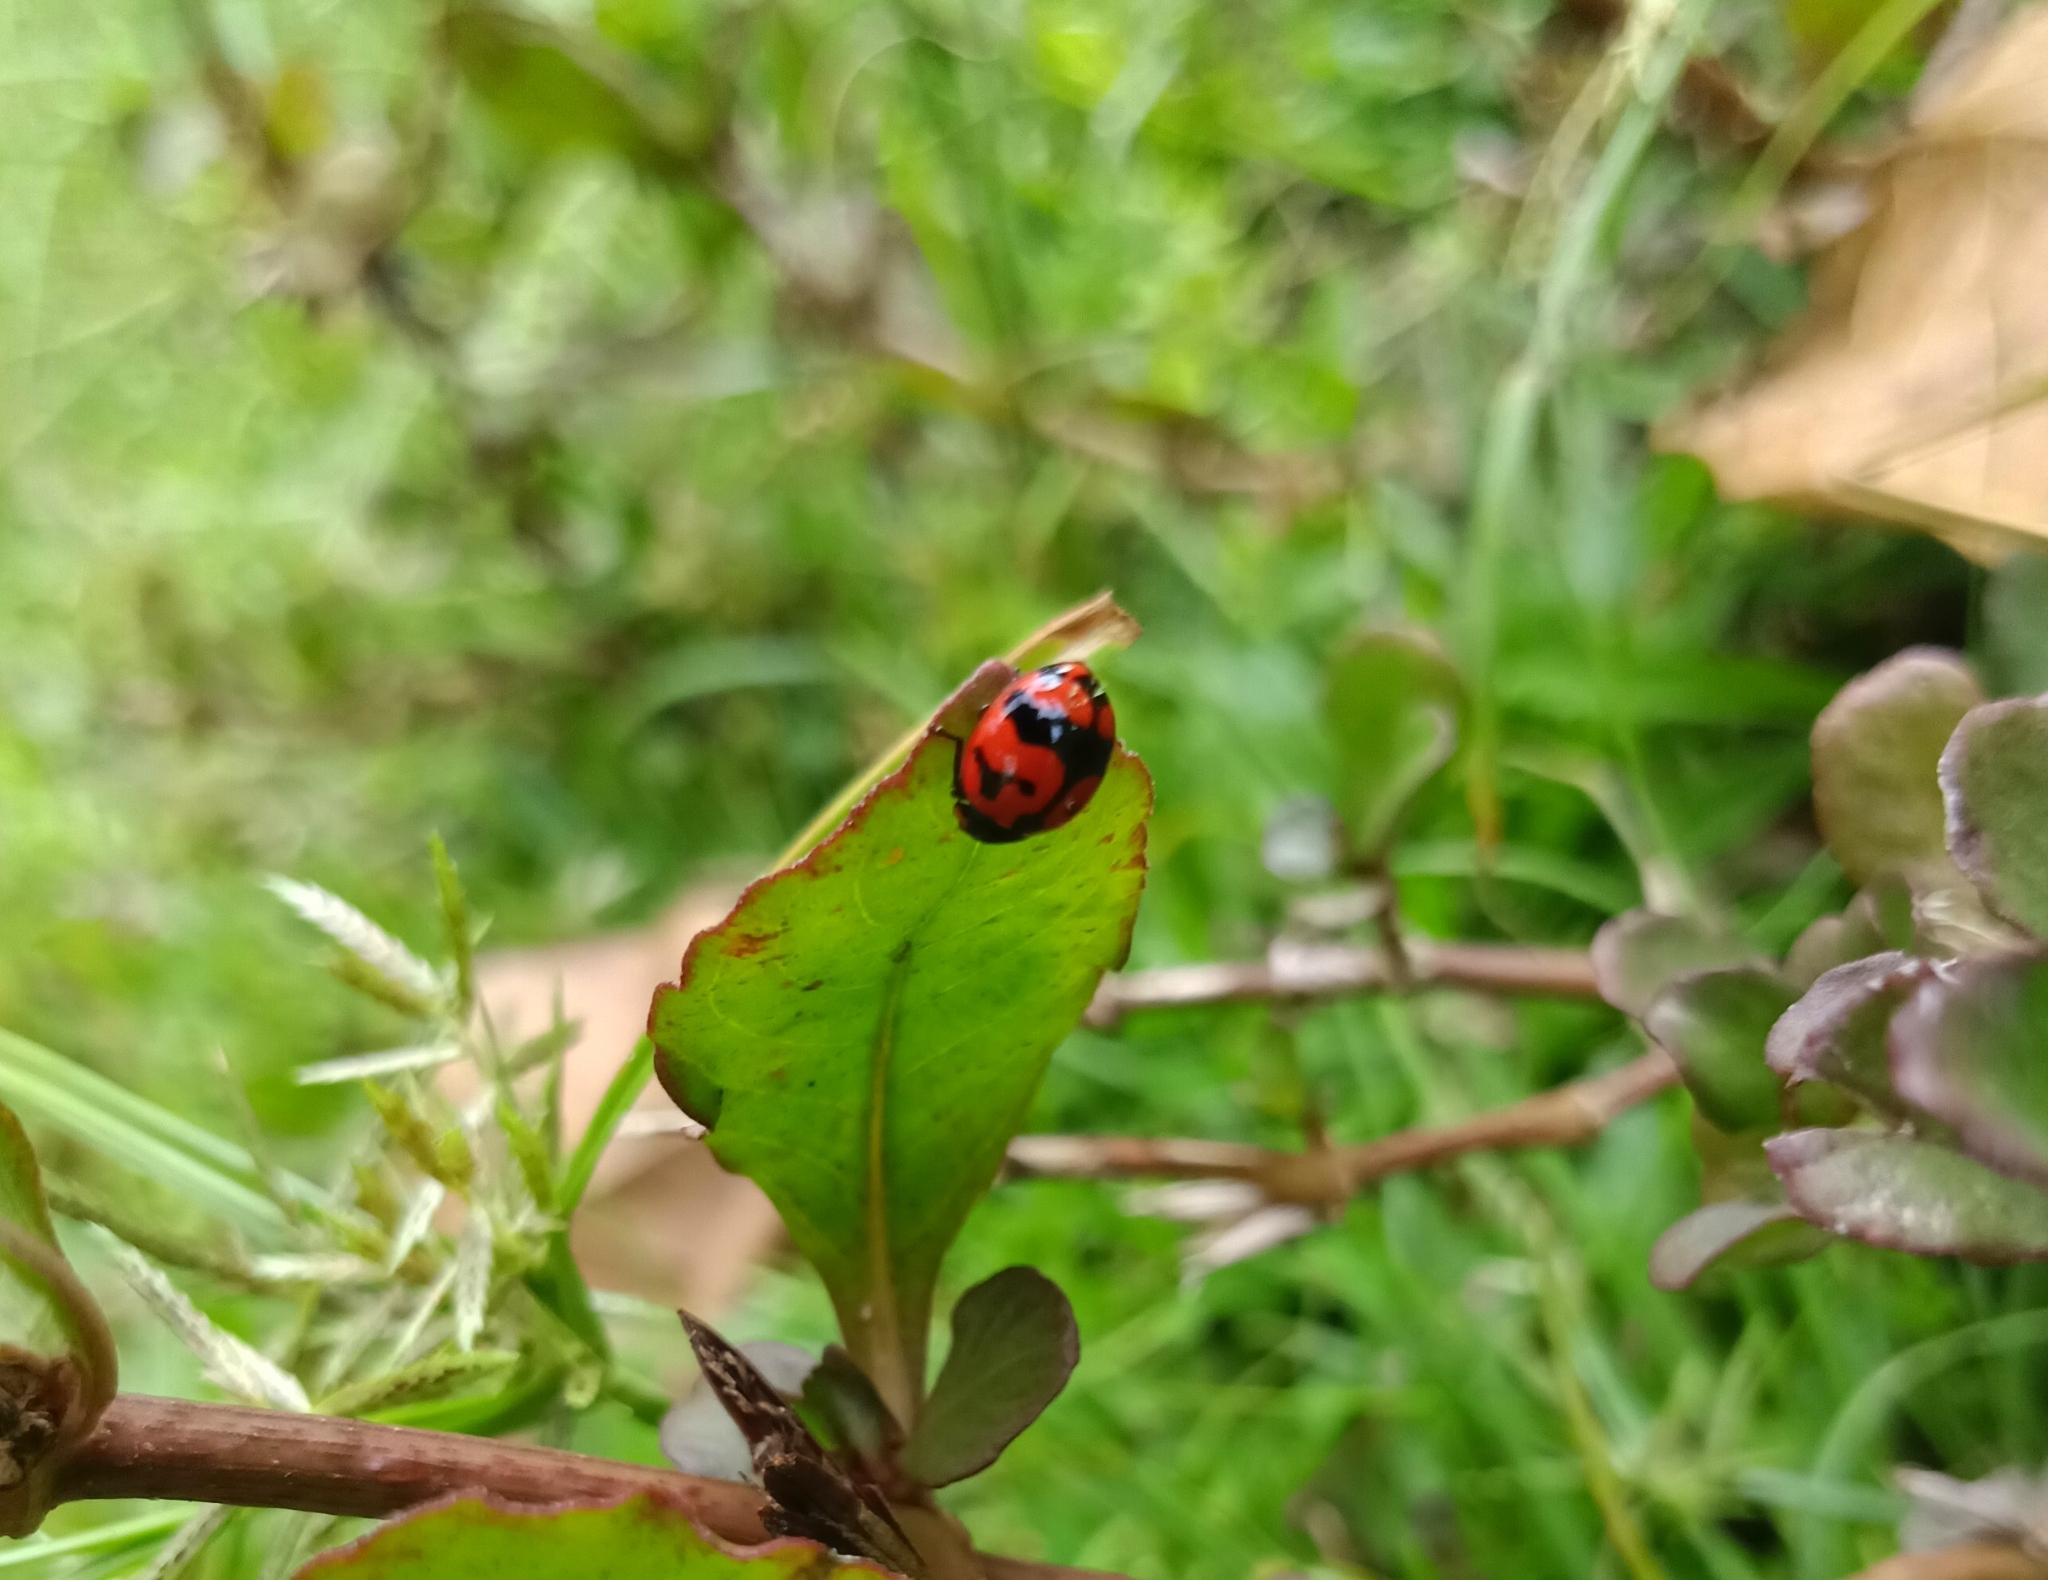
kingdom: Animalia
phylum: Arthropoda
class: Insecta
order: Coleoptera
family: Coccinellidae
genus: Coccinella
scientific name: Coccinella transversalis
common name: Transverse lady beetle
